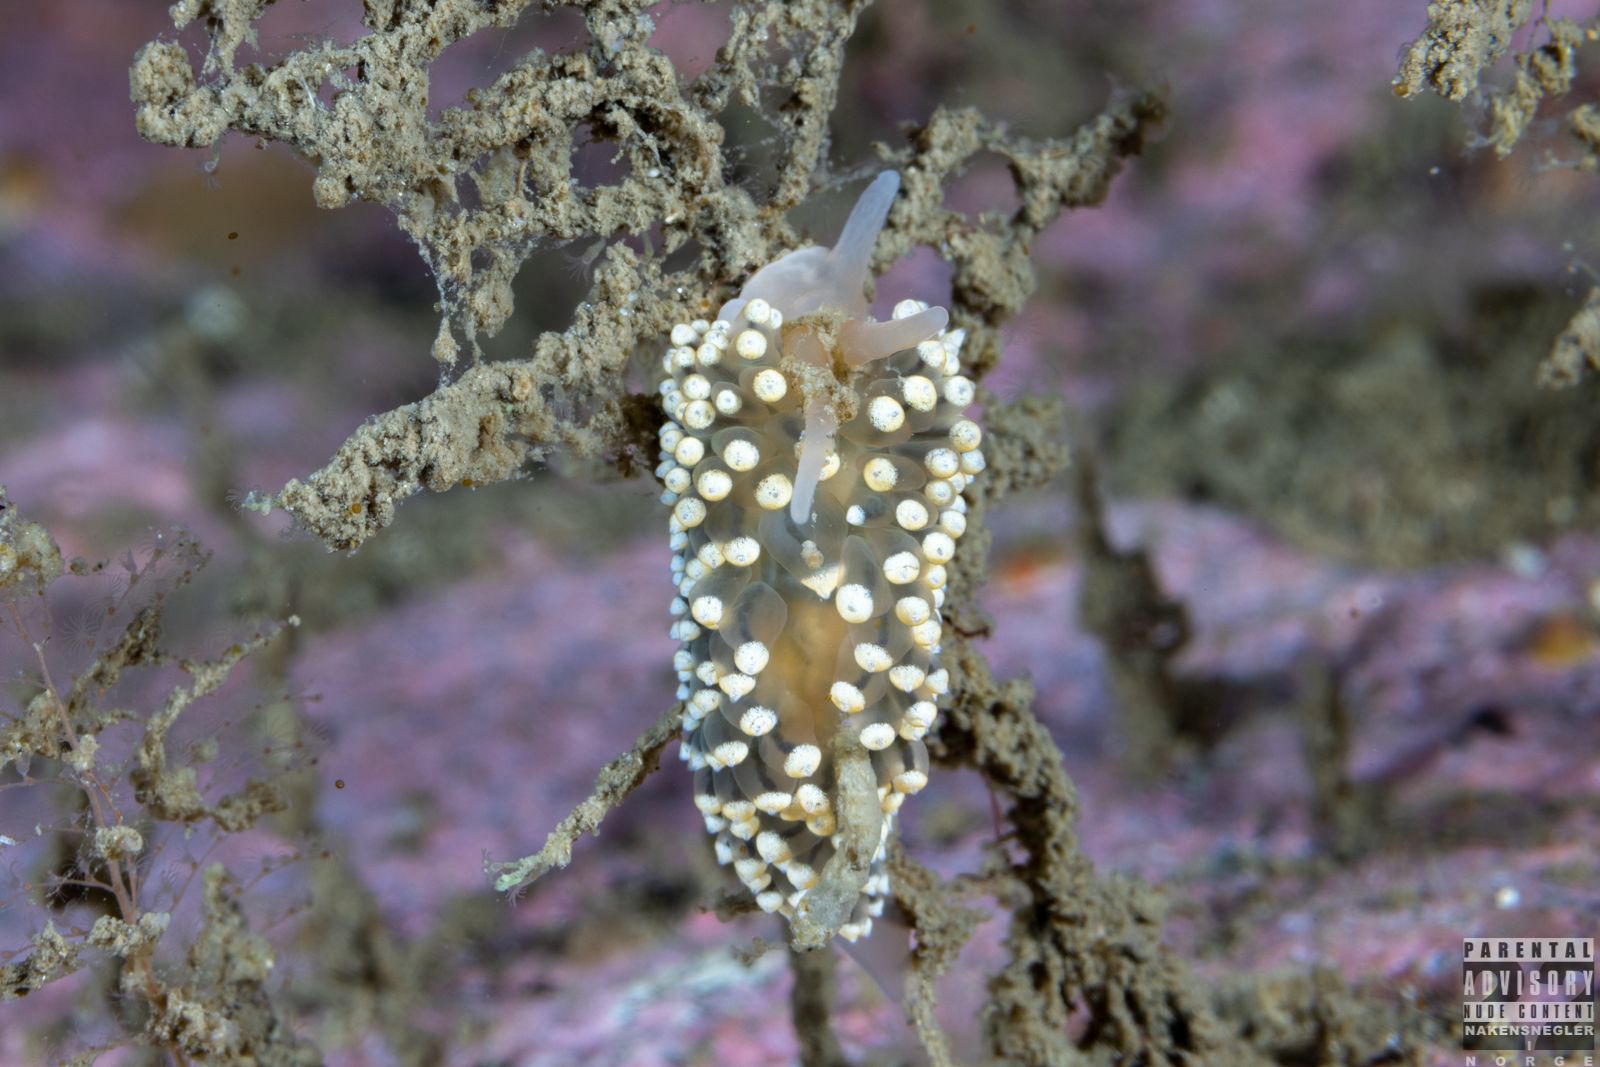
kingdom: Animalia
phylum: Mollusca
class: Gastropoda
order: Nudibranchia
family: Eubranchidae
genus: Eubranchus
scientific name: Eubranchus tricolor
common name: Painted balloon aeolis
